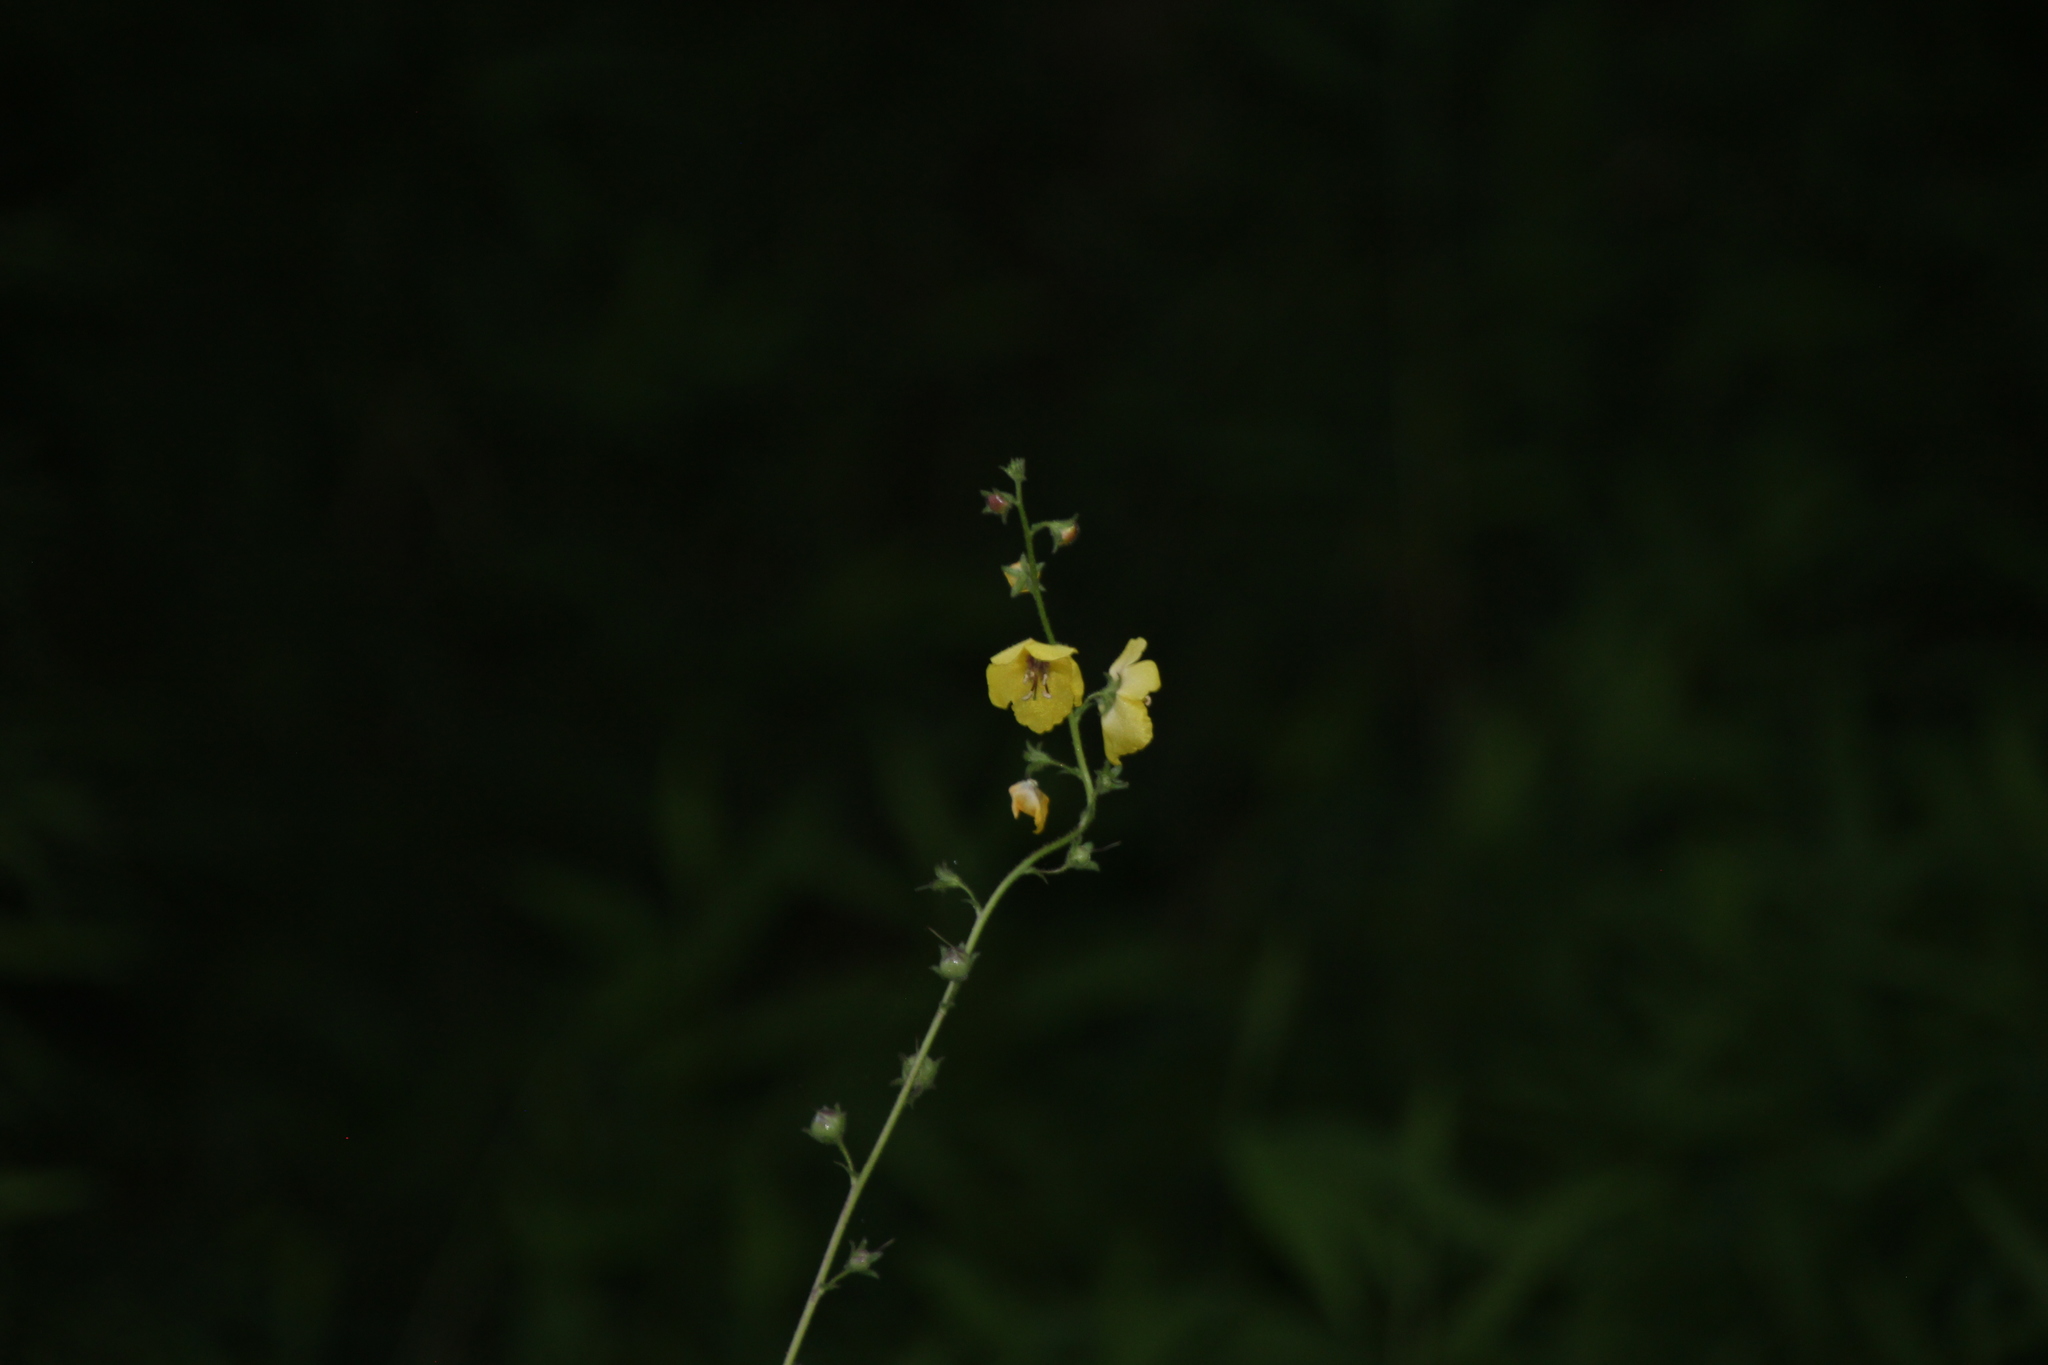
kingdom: Plantae
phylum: Tracheophyta
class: Magnoliopsida
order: Lamiales
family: Scrophulariaceae
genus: Verbascum
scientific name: Verbascum blattaria
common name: Moth mullein
